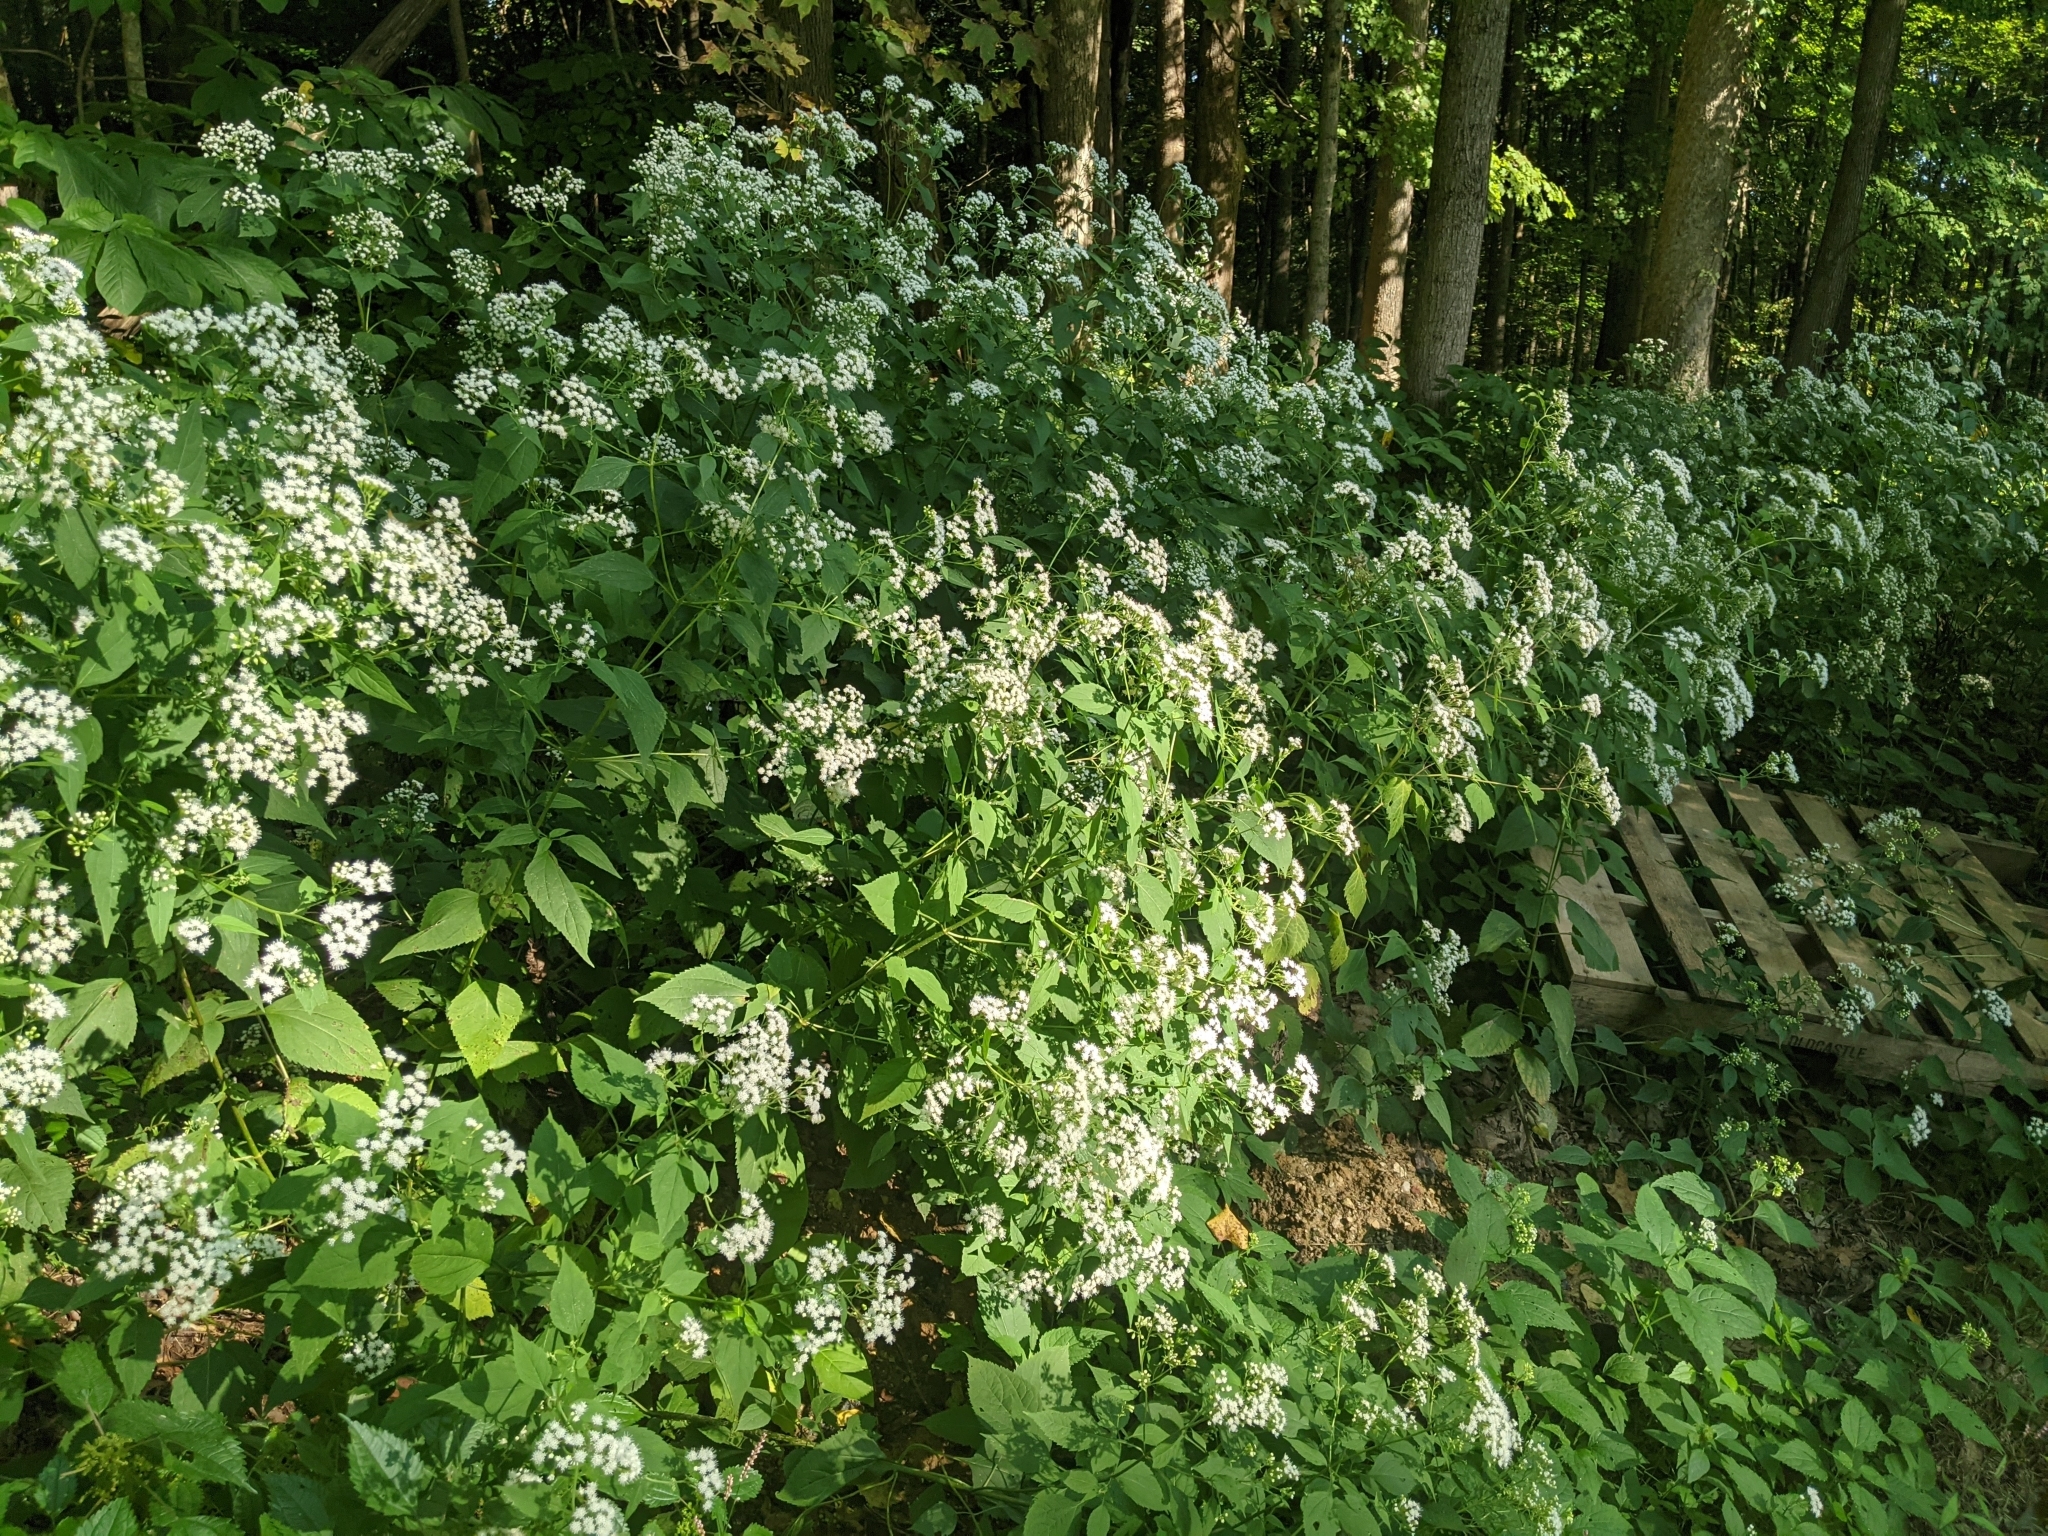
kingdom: Plantae
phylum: Tracheophyta
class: Magnoliopsida
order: Asterales
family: Asteraceae
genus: Ageratina
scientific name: Ageratina altissima
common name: White snakeroot
